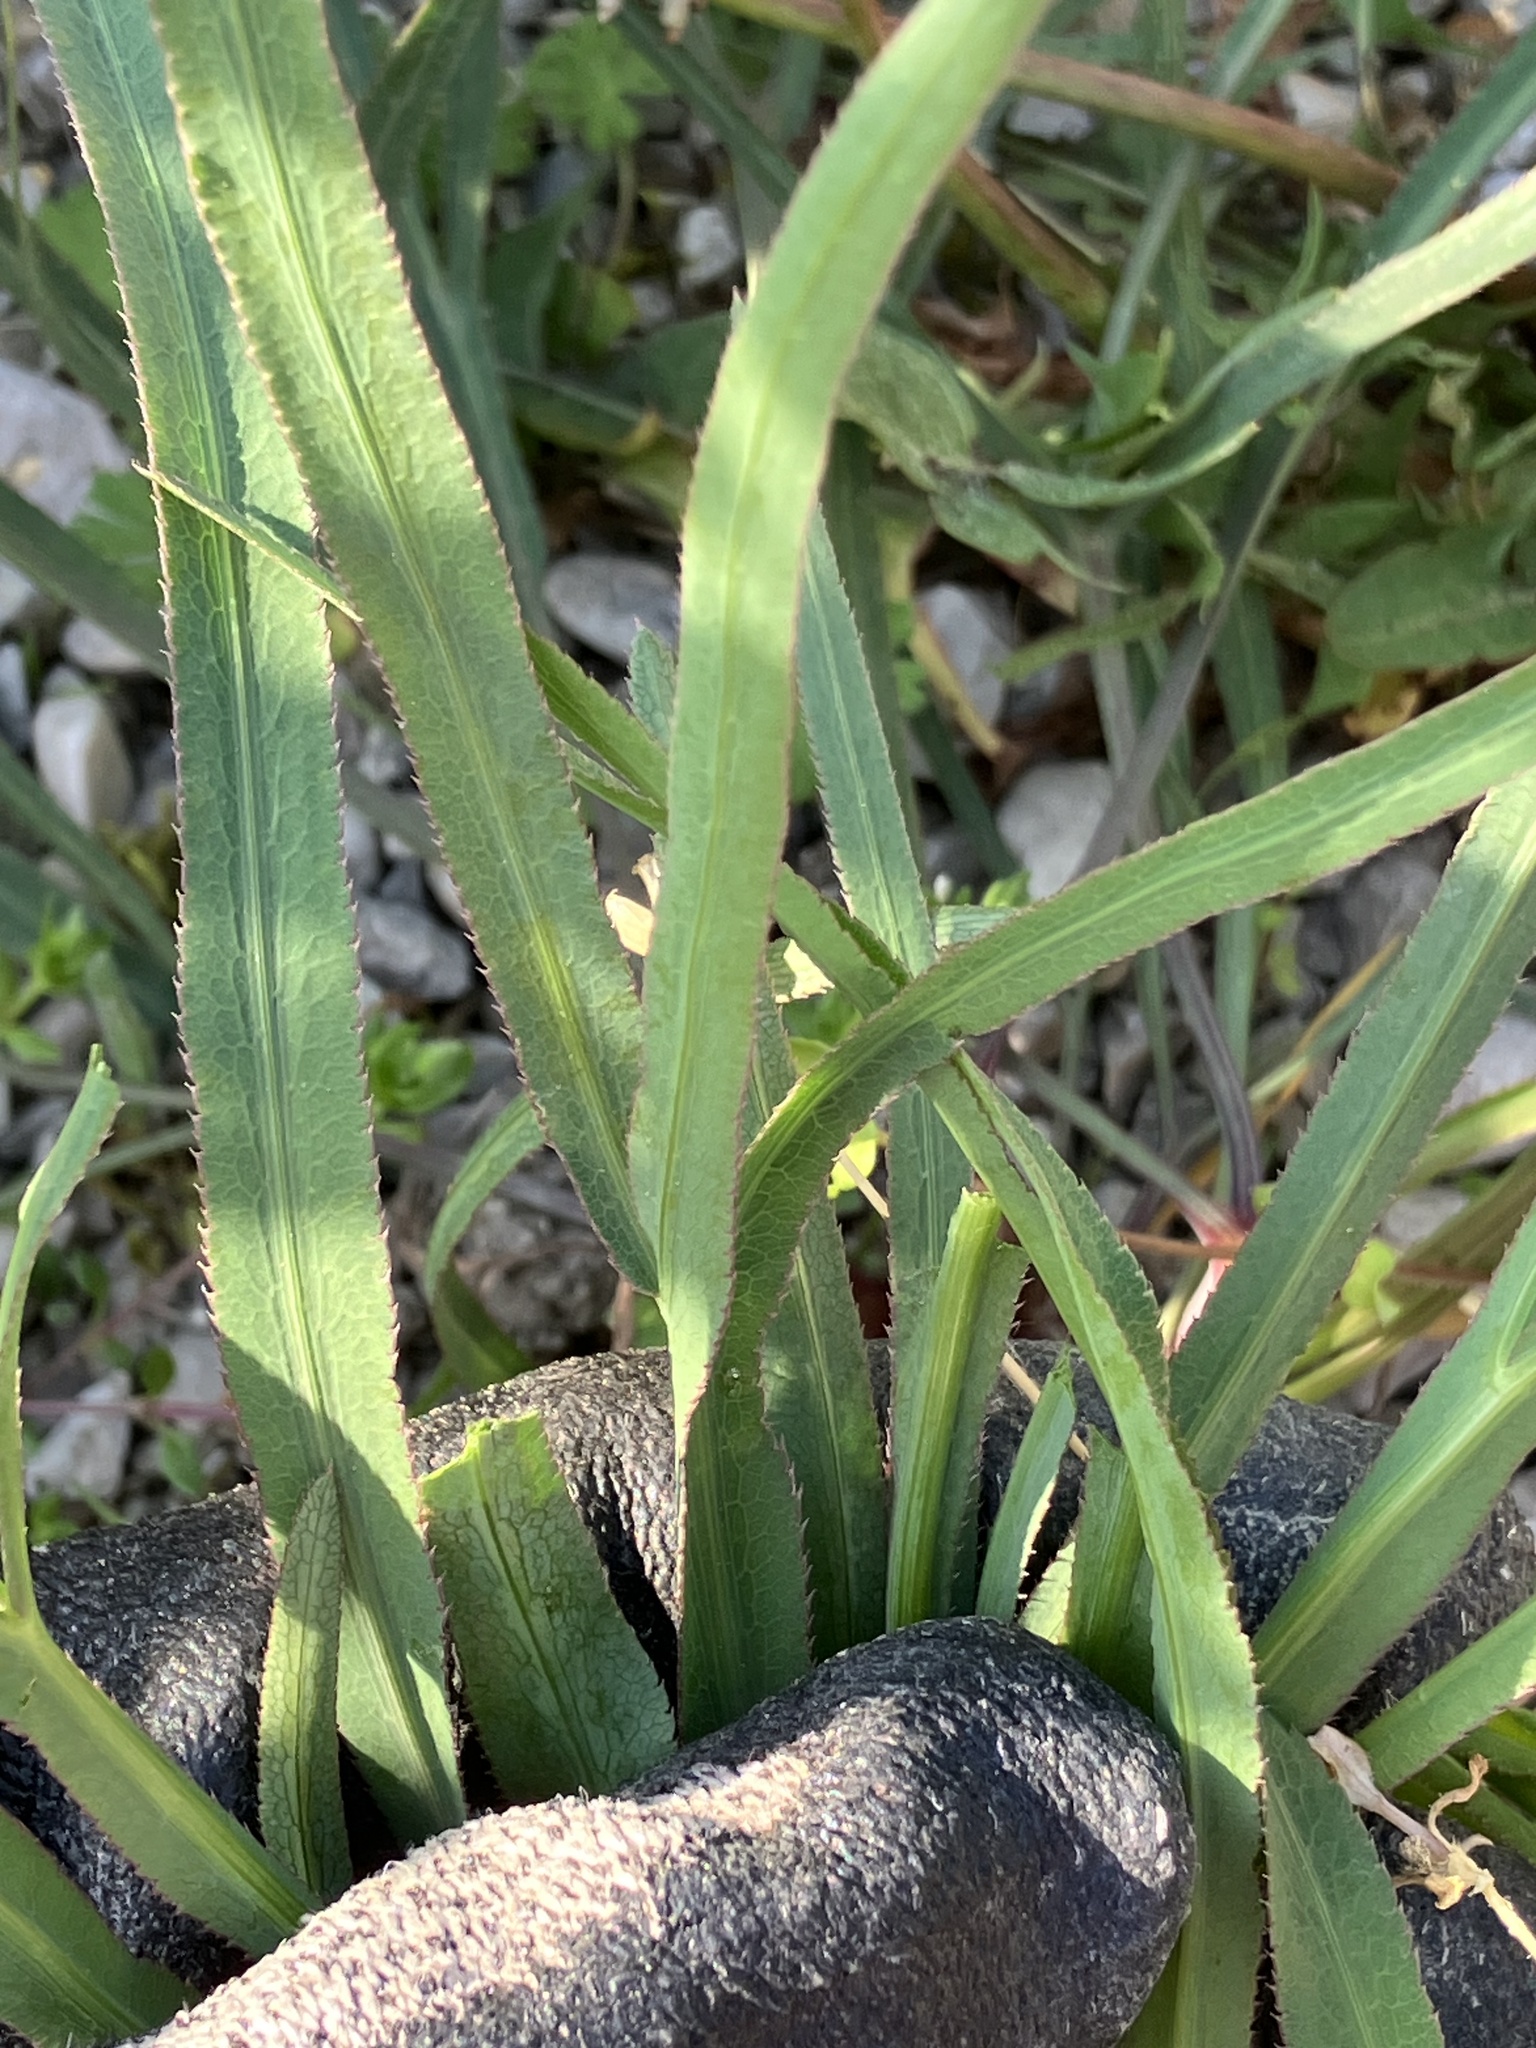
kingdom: Plantae
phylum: Tracheophyta
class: Magnoliopsida
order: Apiales
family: Apiaceae
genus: Falcaria
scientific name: Falcaria vulgaris
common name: Longleaf
